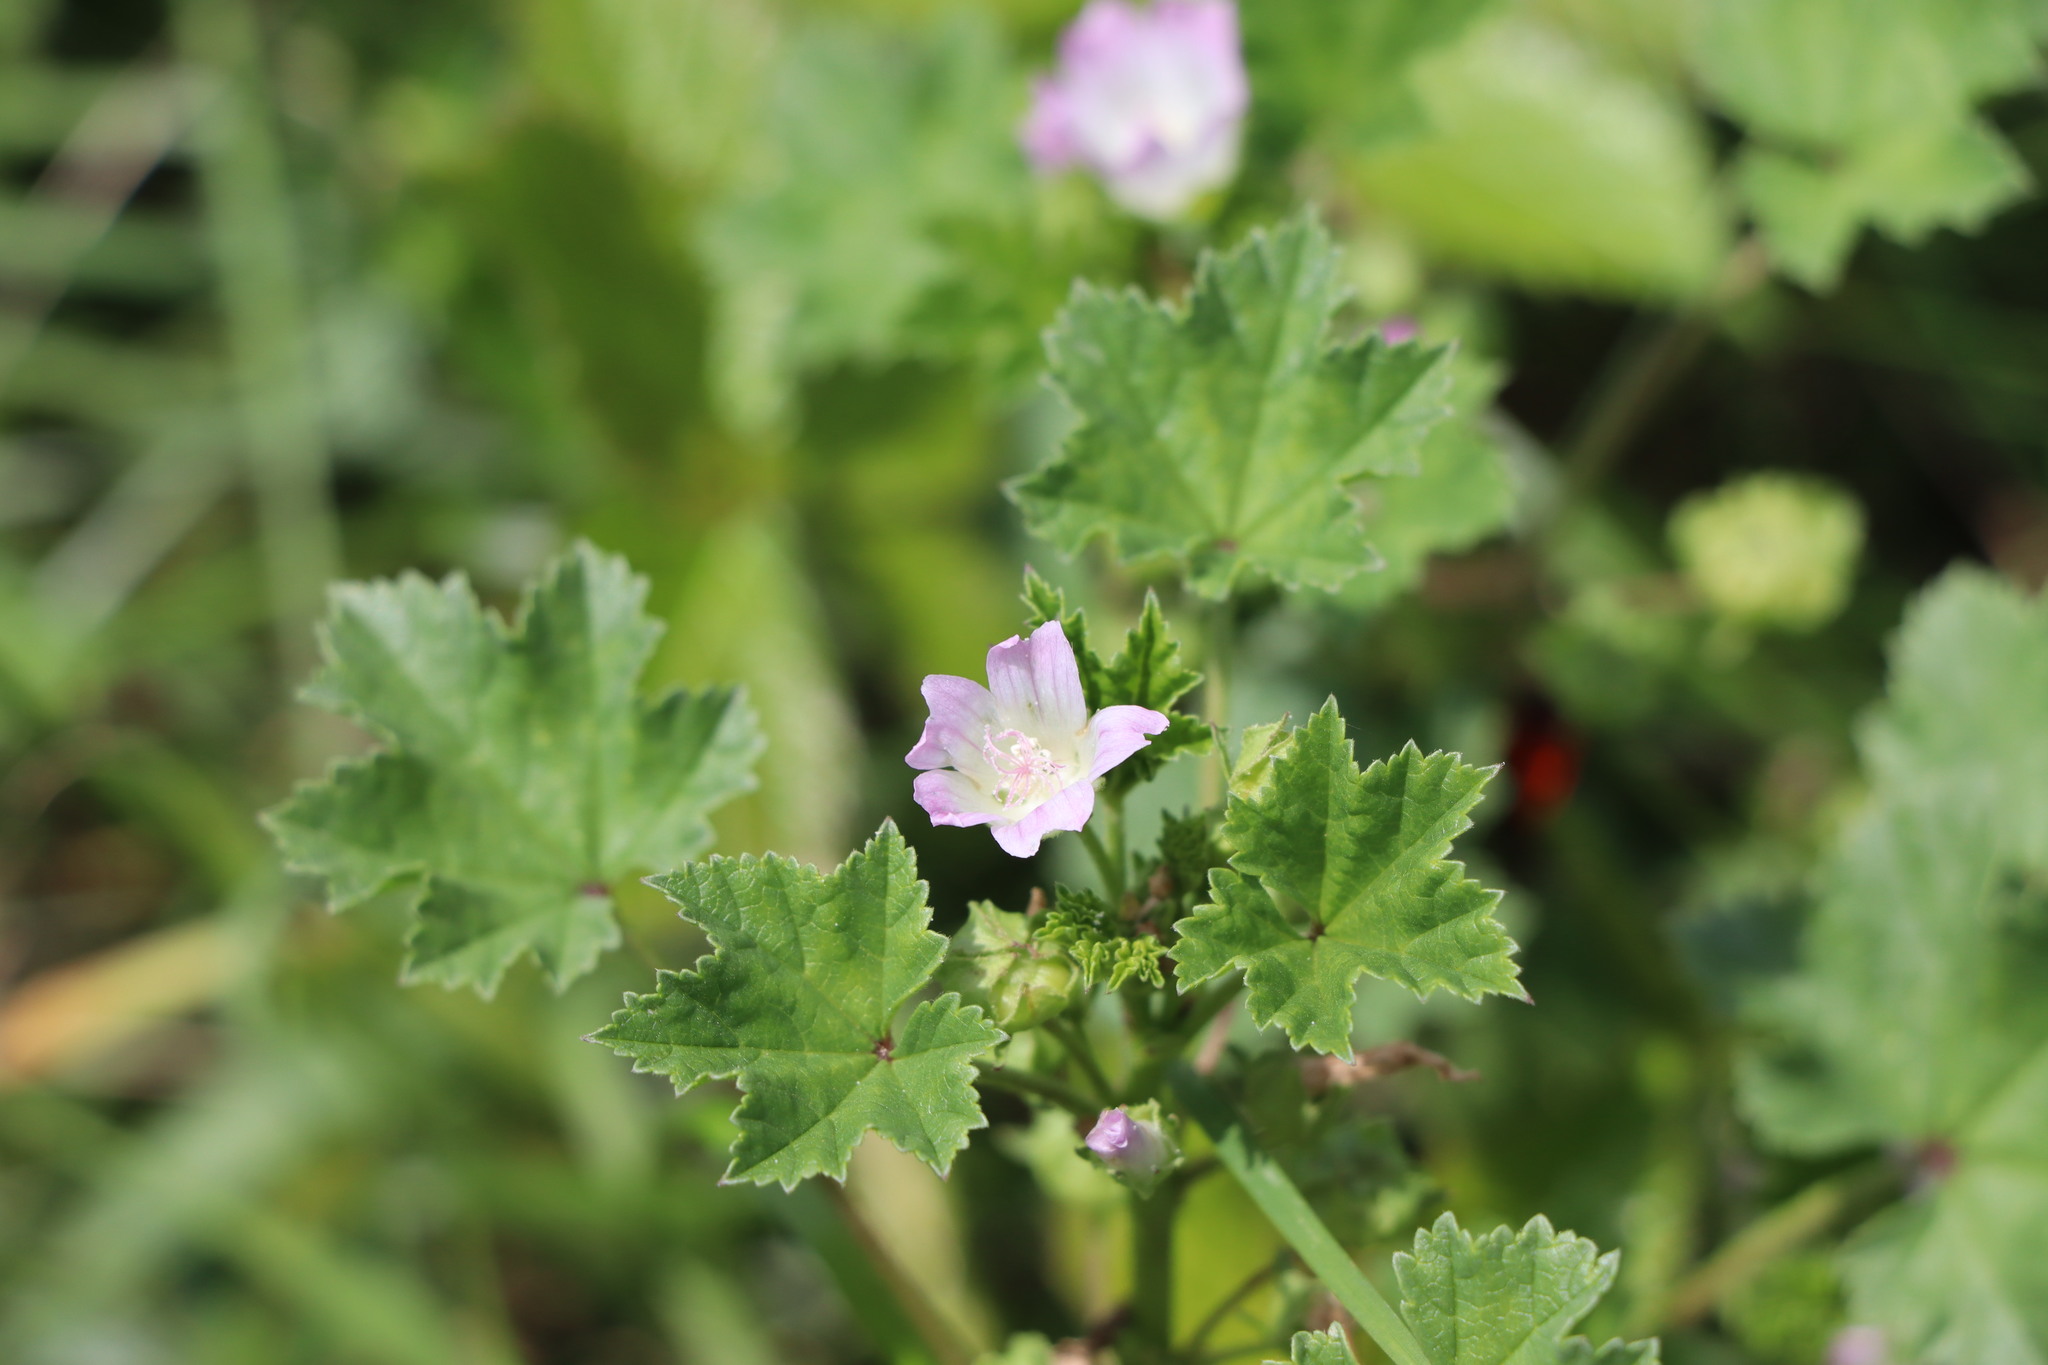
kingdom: Plantae
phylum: Tracheophyta
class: Magnoliopsida
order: Malvales
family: Malvaceae
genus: Malva
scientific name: Malva neglecta
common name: Common mallow
